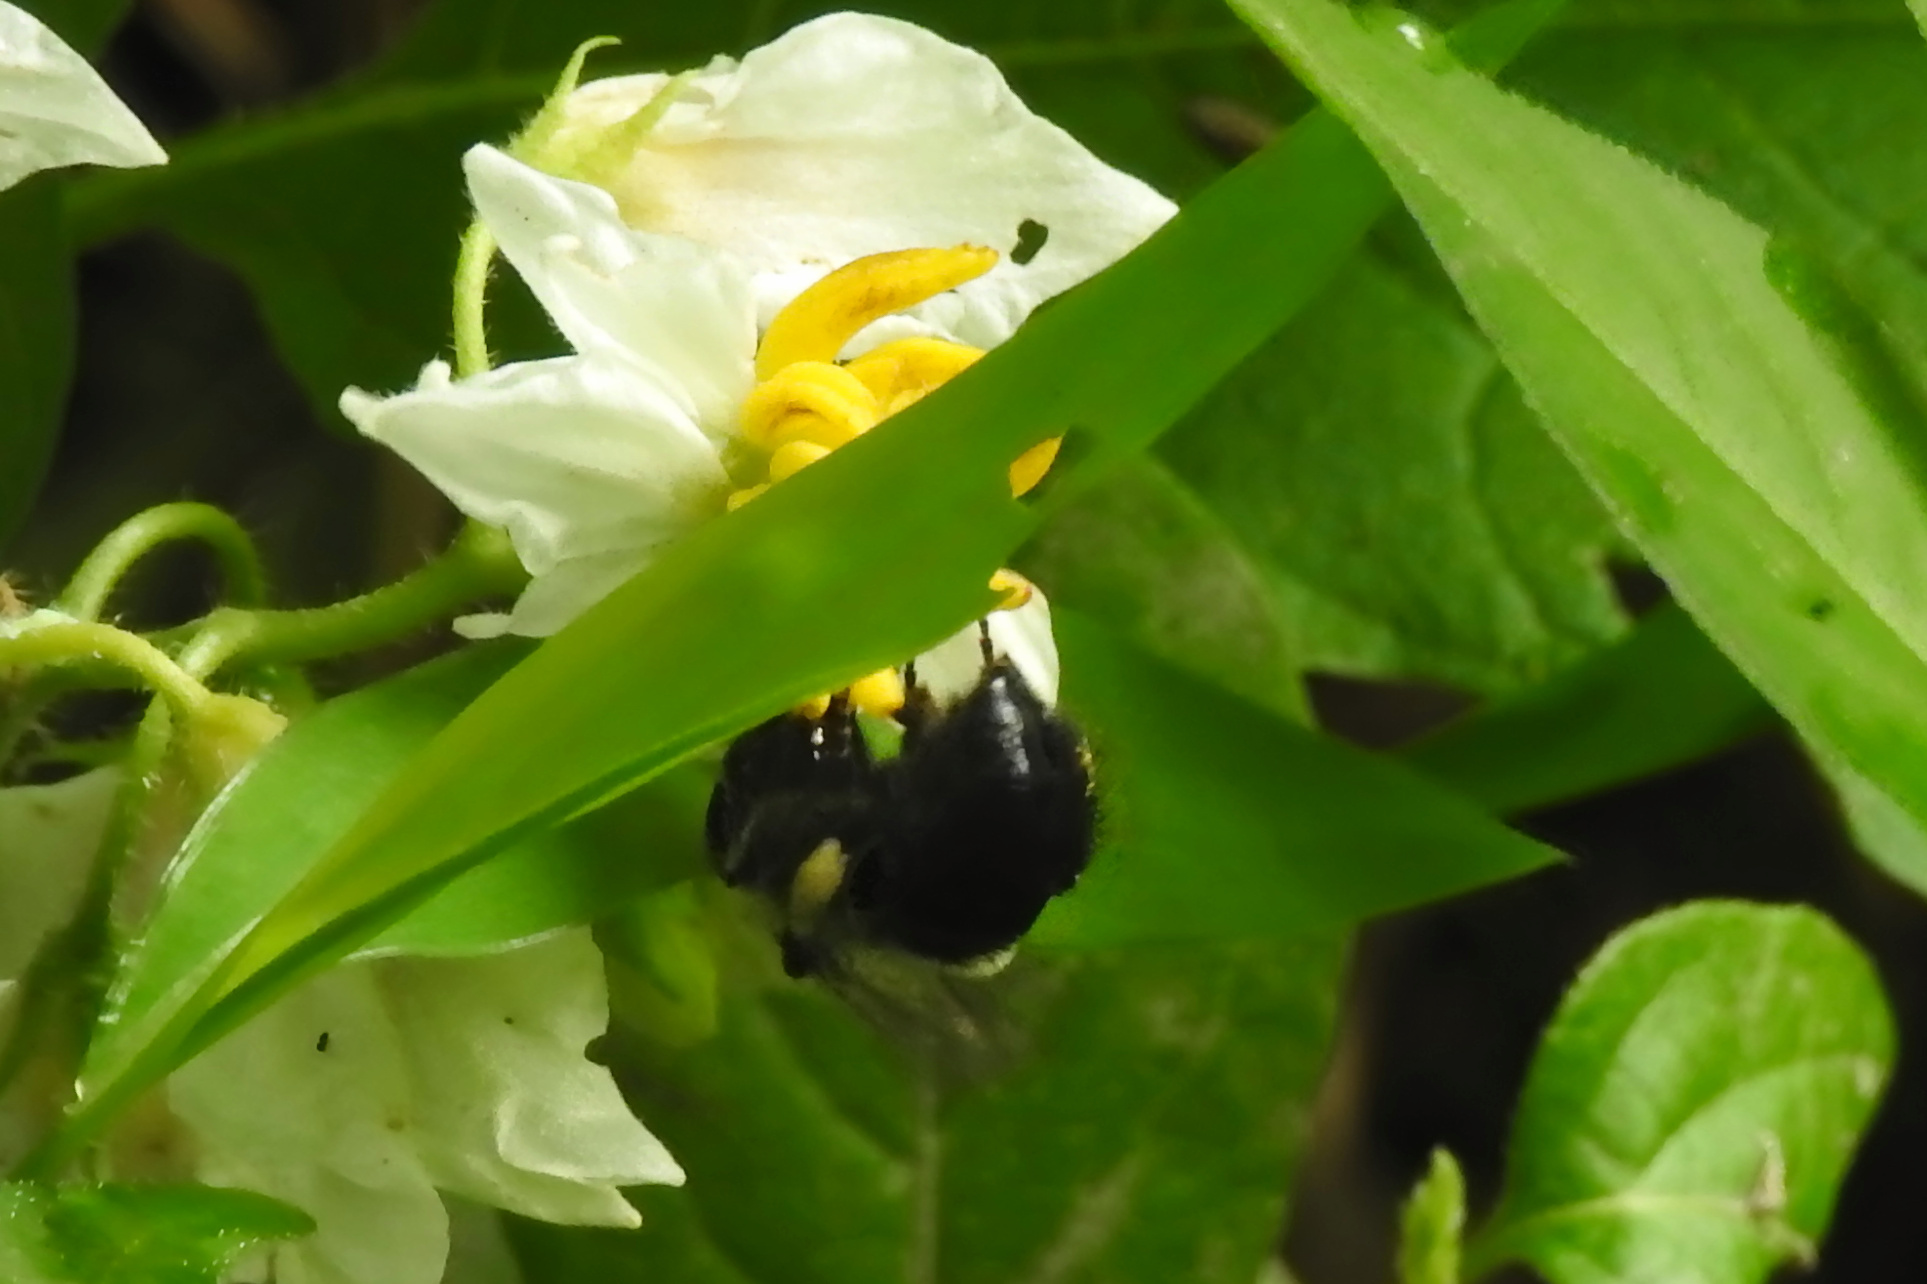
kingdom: Animalia
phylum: Arthropoda
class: Insecta
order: Hymenoptera
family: Apidae
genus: Bombus
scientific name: Bombus
